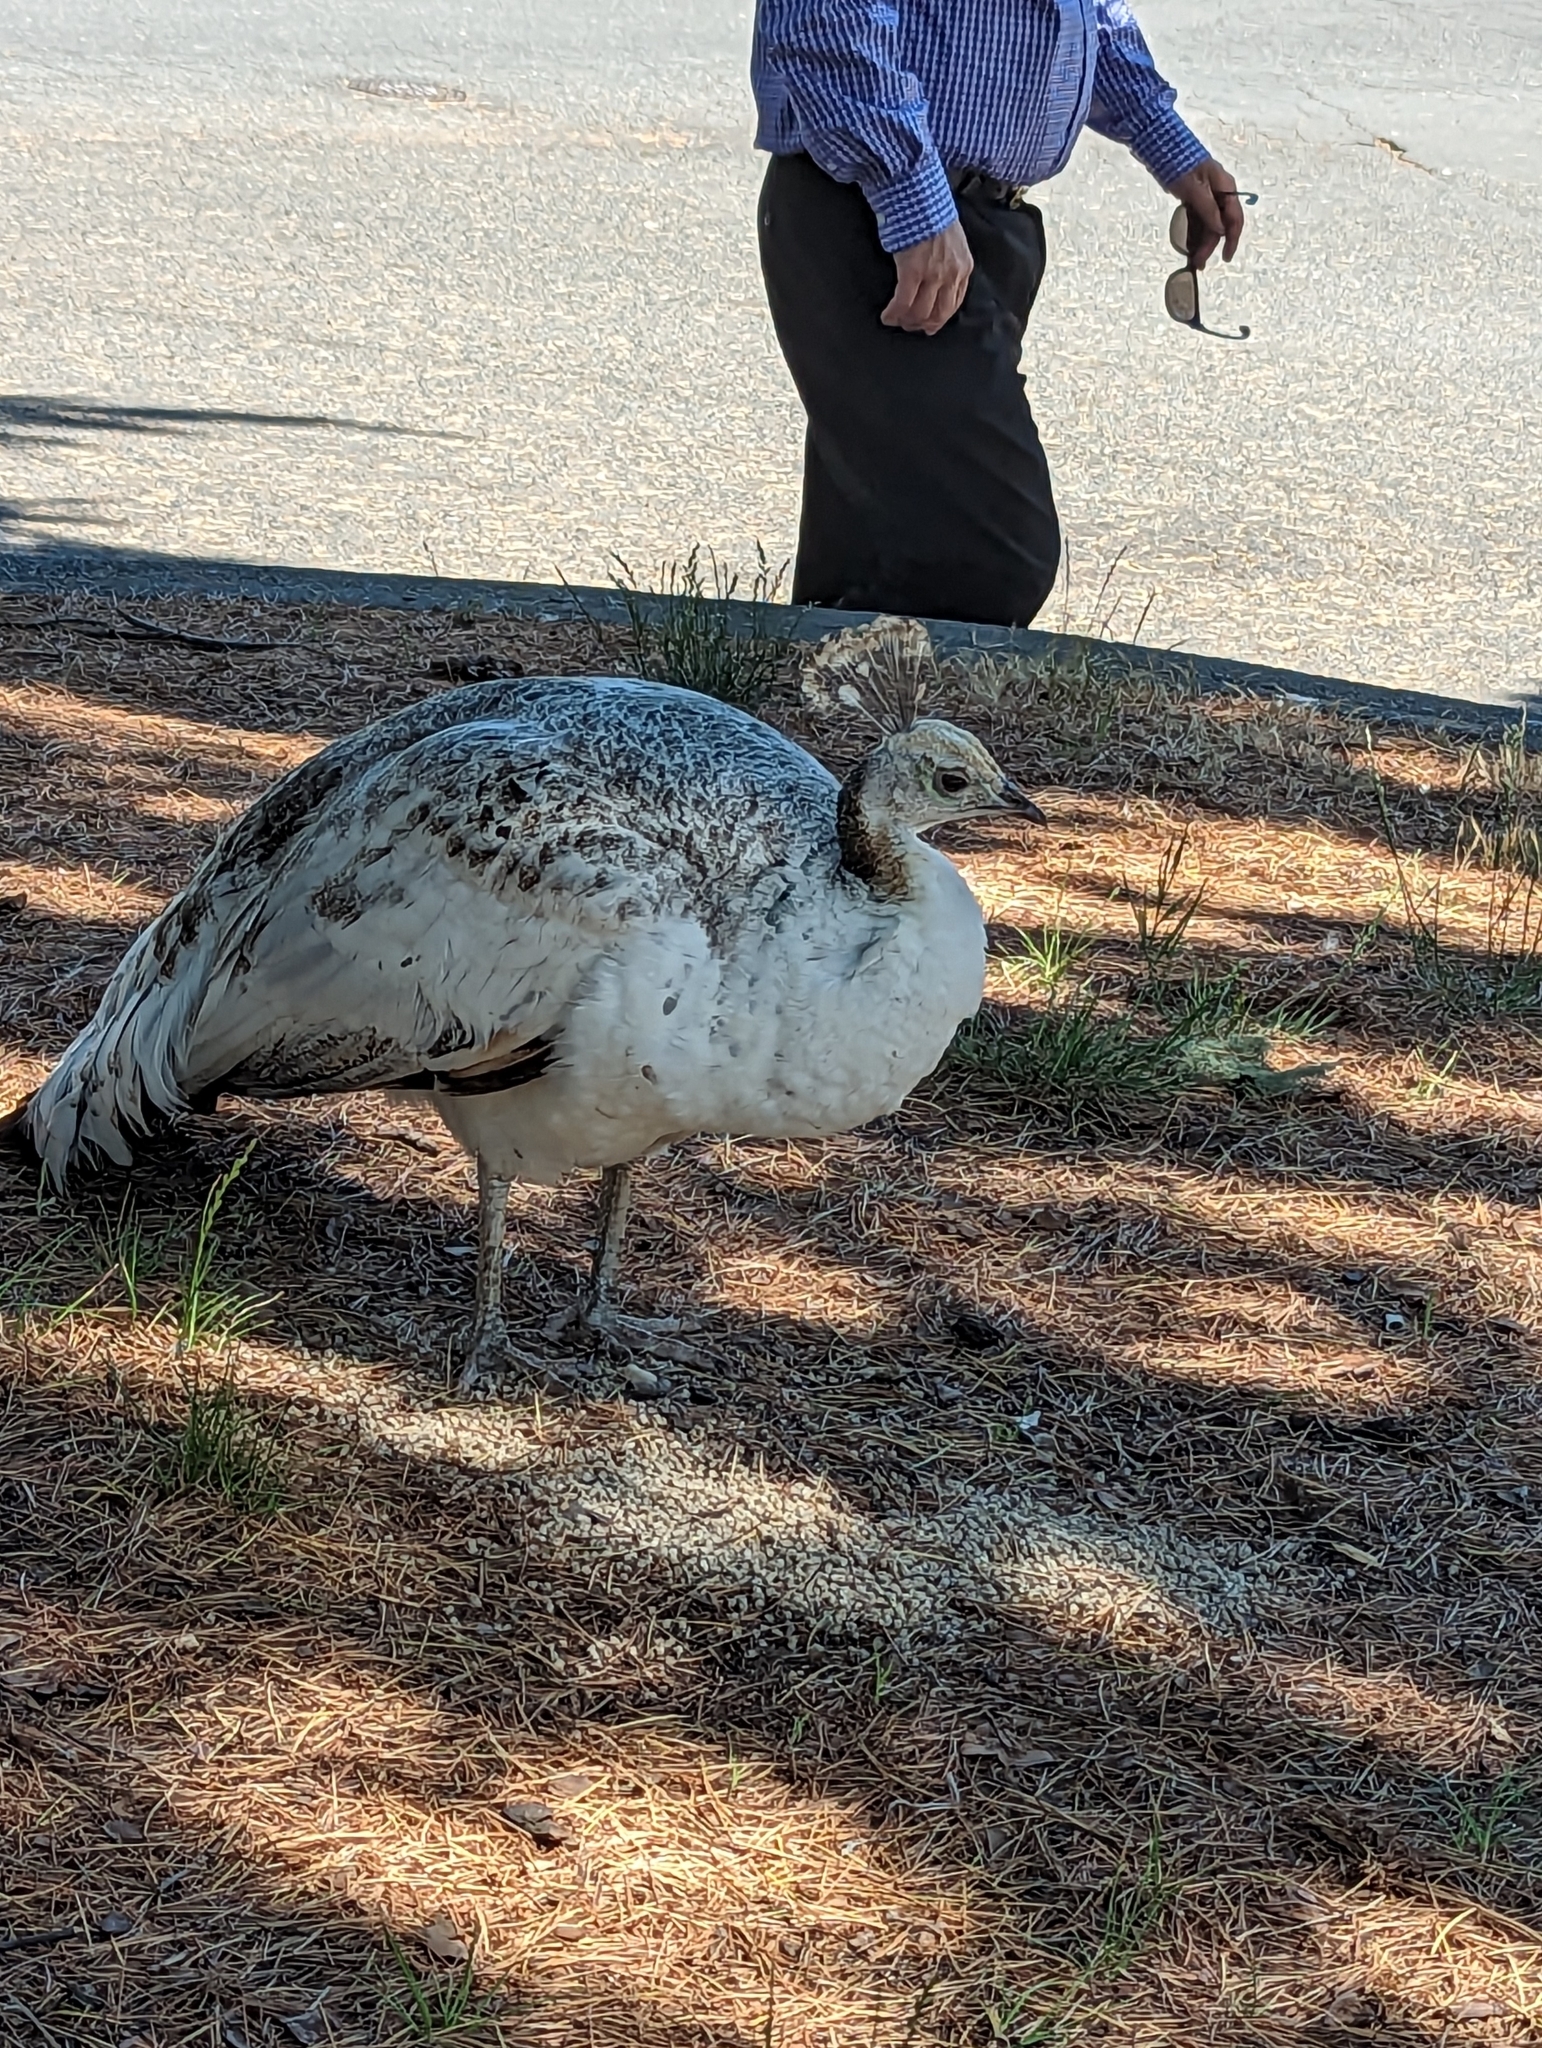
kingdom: Animalia
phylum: Chordata
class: Aves
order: Galliformes
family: Phasianidae
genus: Pavo
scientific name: Pavo cristatus
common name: Indian peafowl
